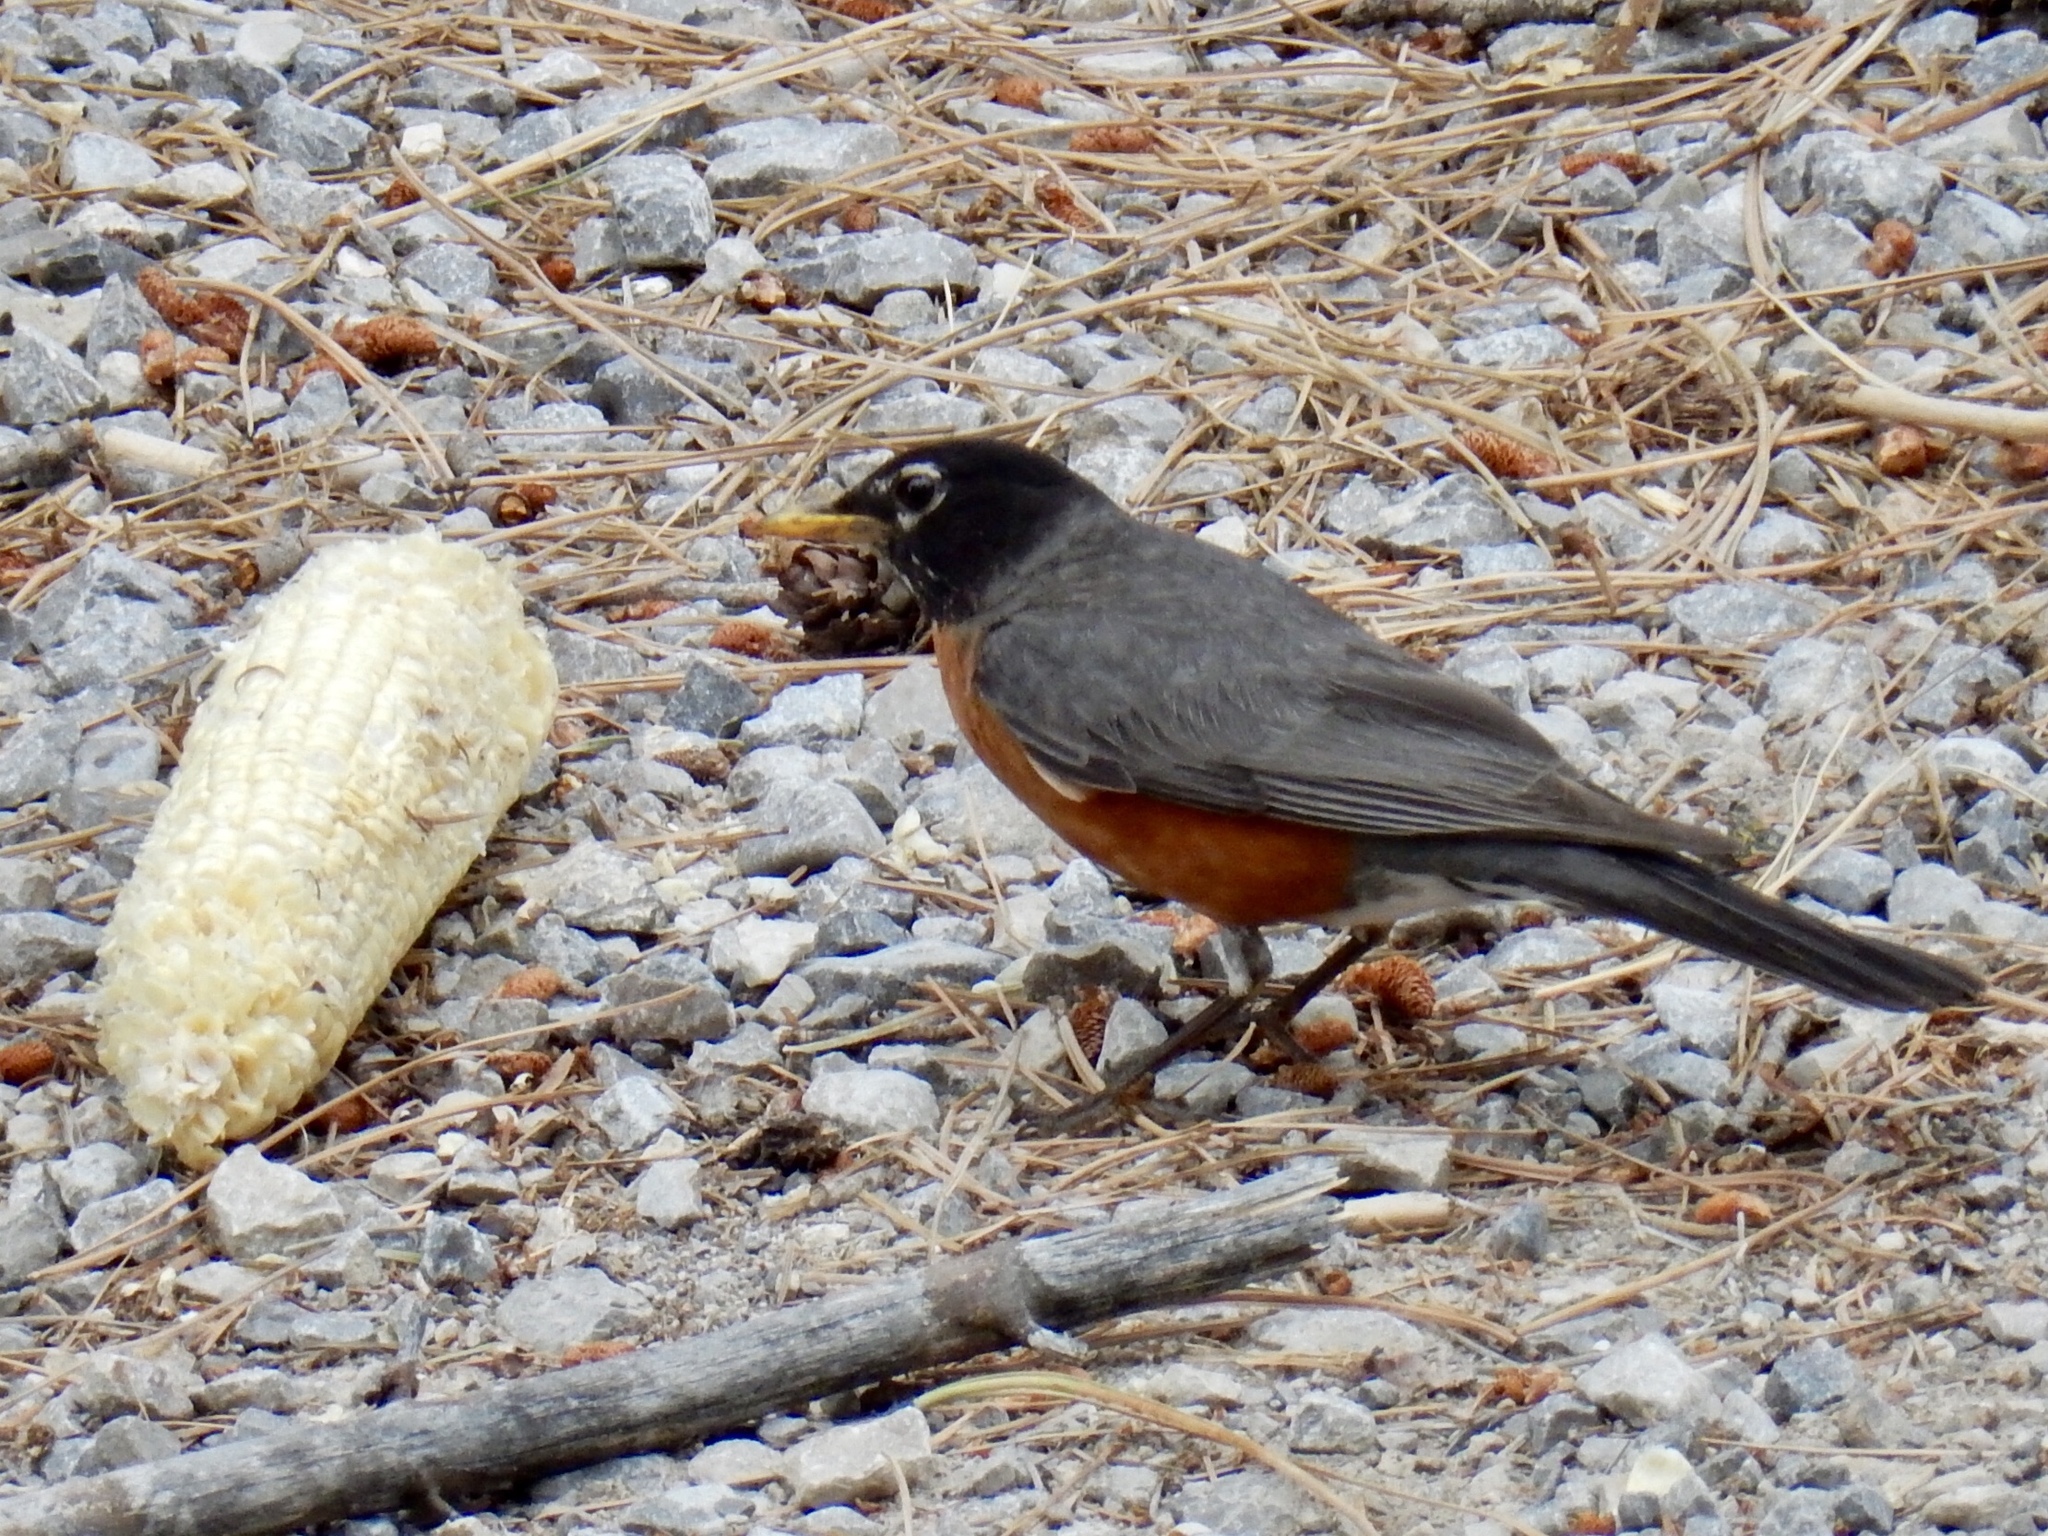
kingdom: Animalia
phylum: Chordata
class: Aves
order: Passeriformes
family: Turdidae
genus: Turdus
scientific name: Turdus migratorius
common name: American robin
